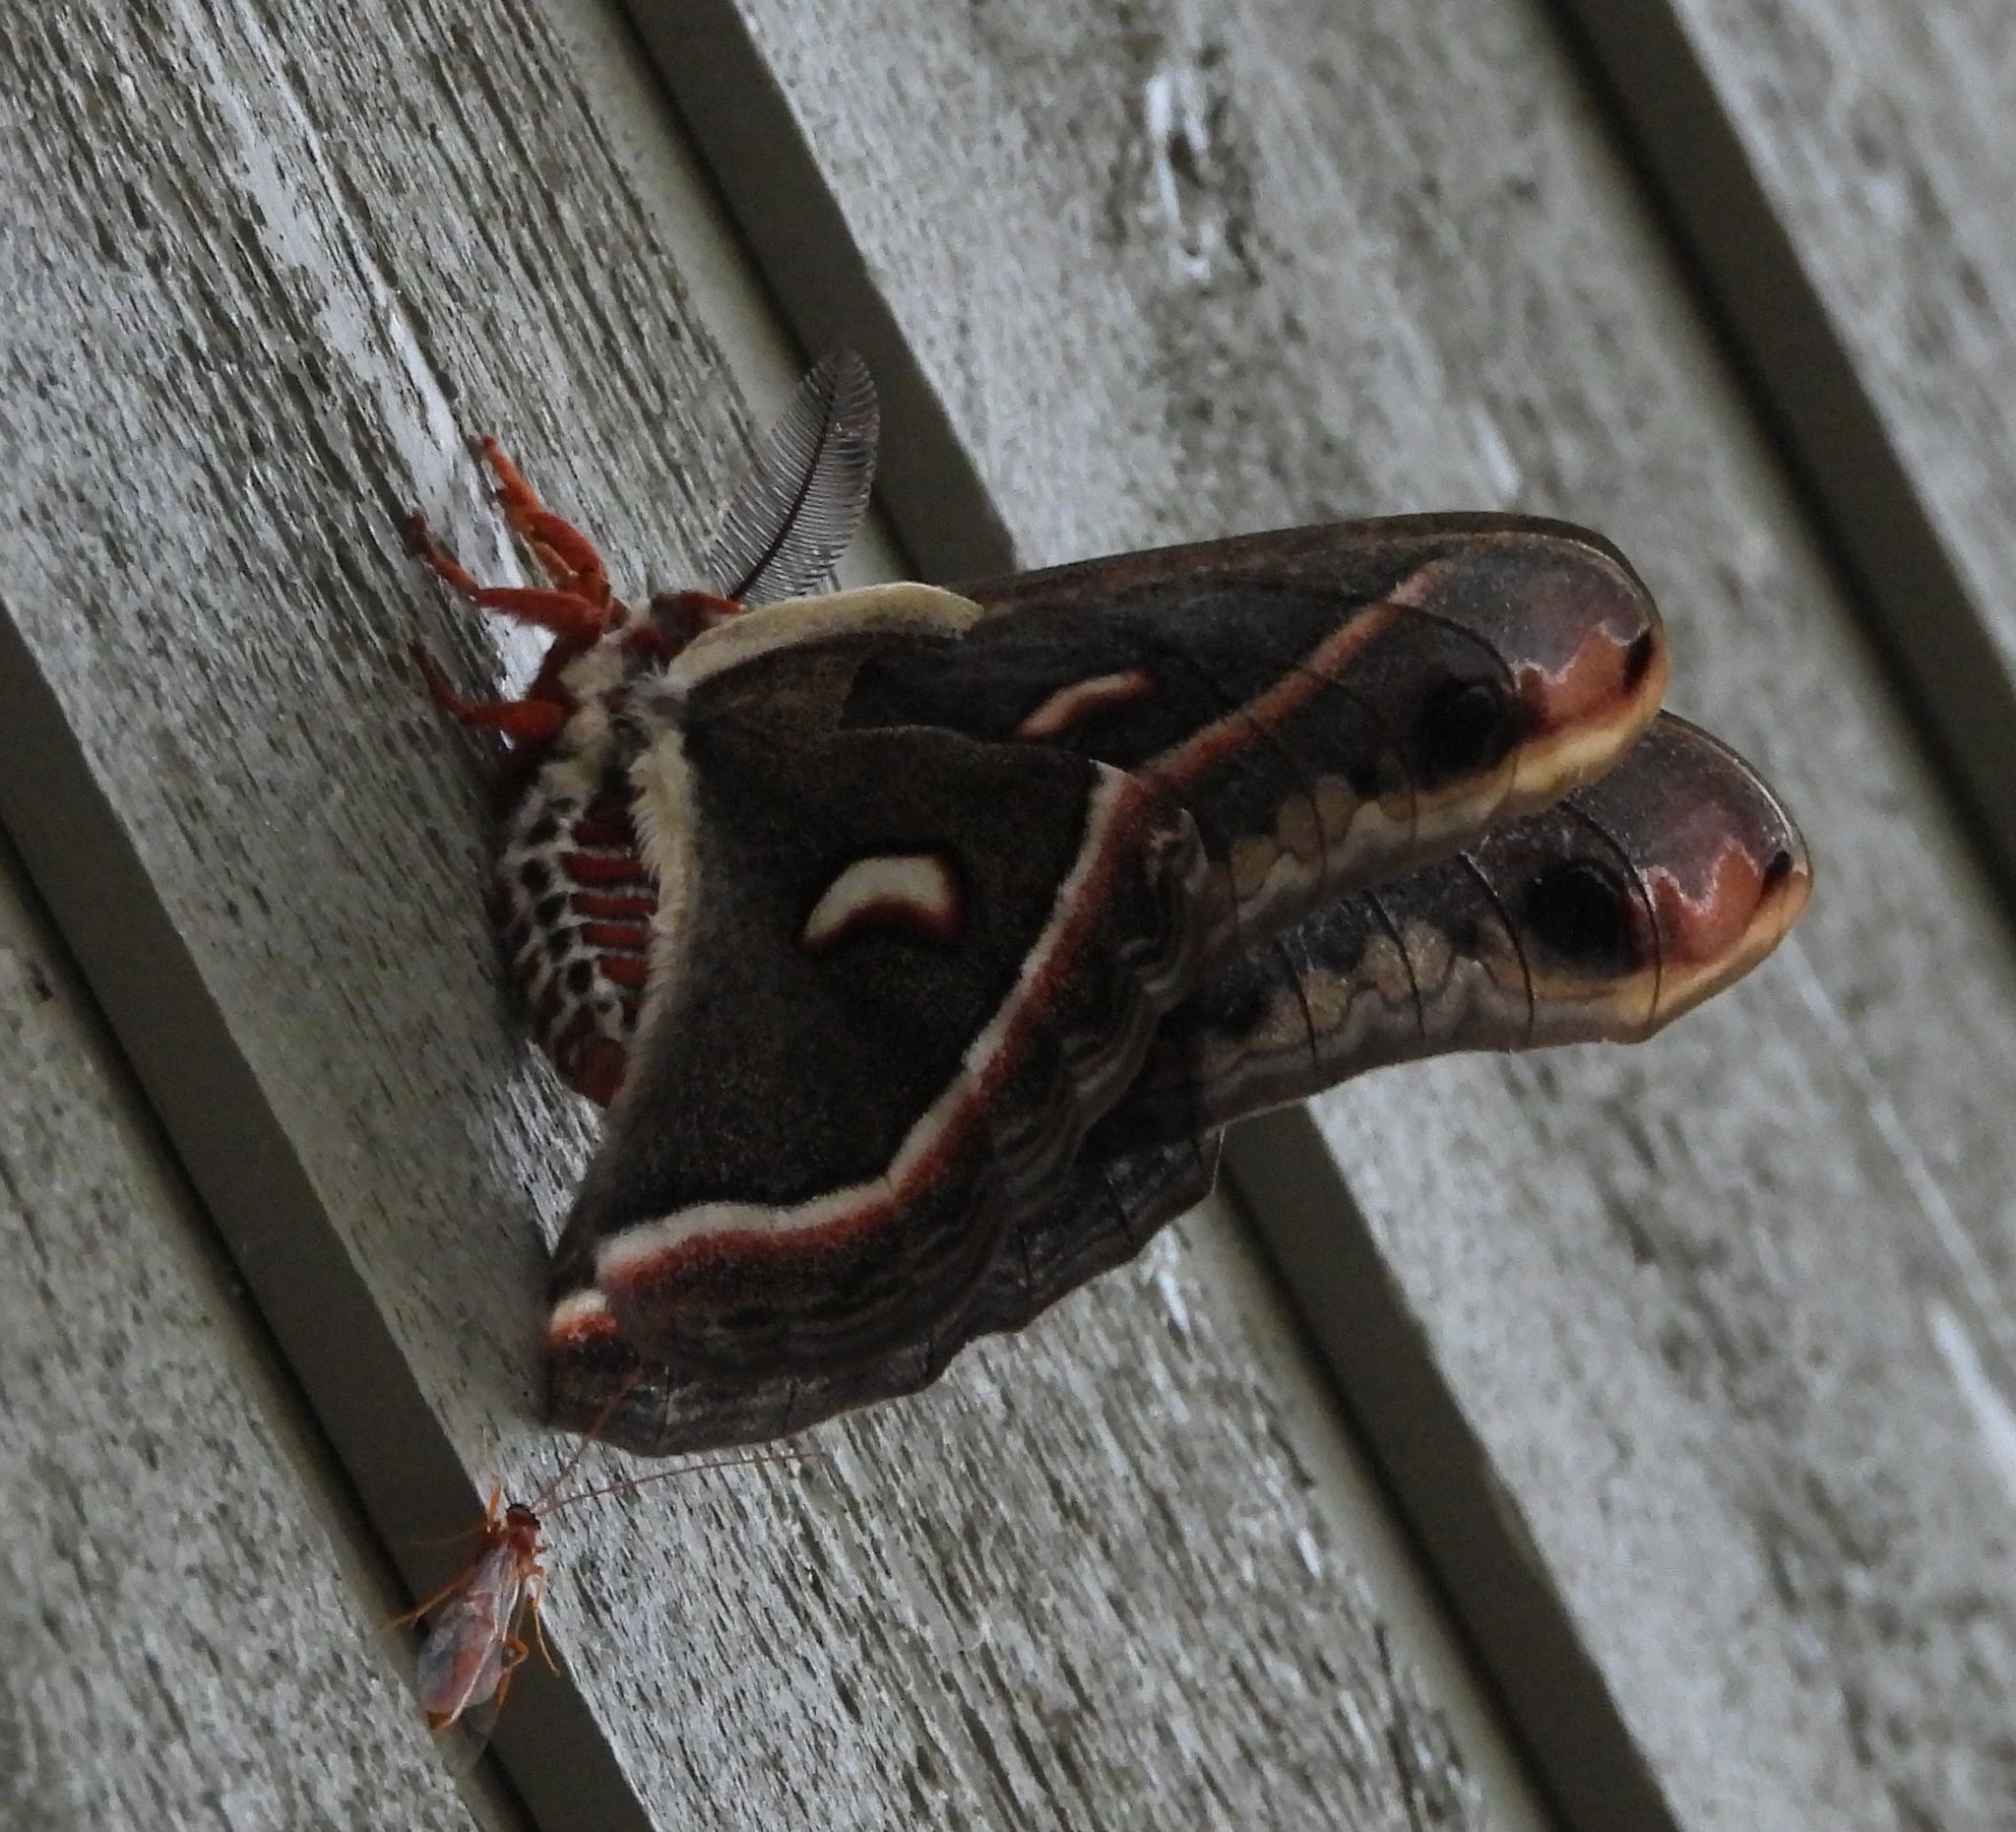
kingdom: Animalia
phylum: Arthropoda
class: Insecta
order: Lepidoptera
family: Saturniidae
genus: Hyalophora
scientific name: Hyalophora cecropia
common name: Cecropia silkmoth
